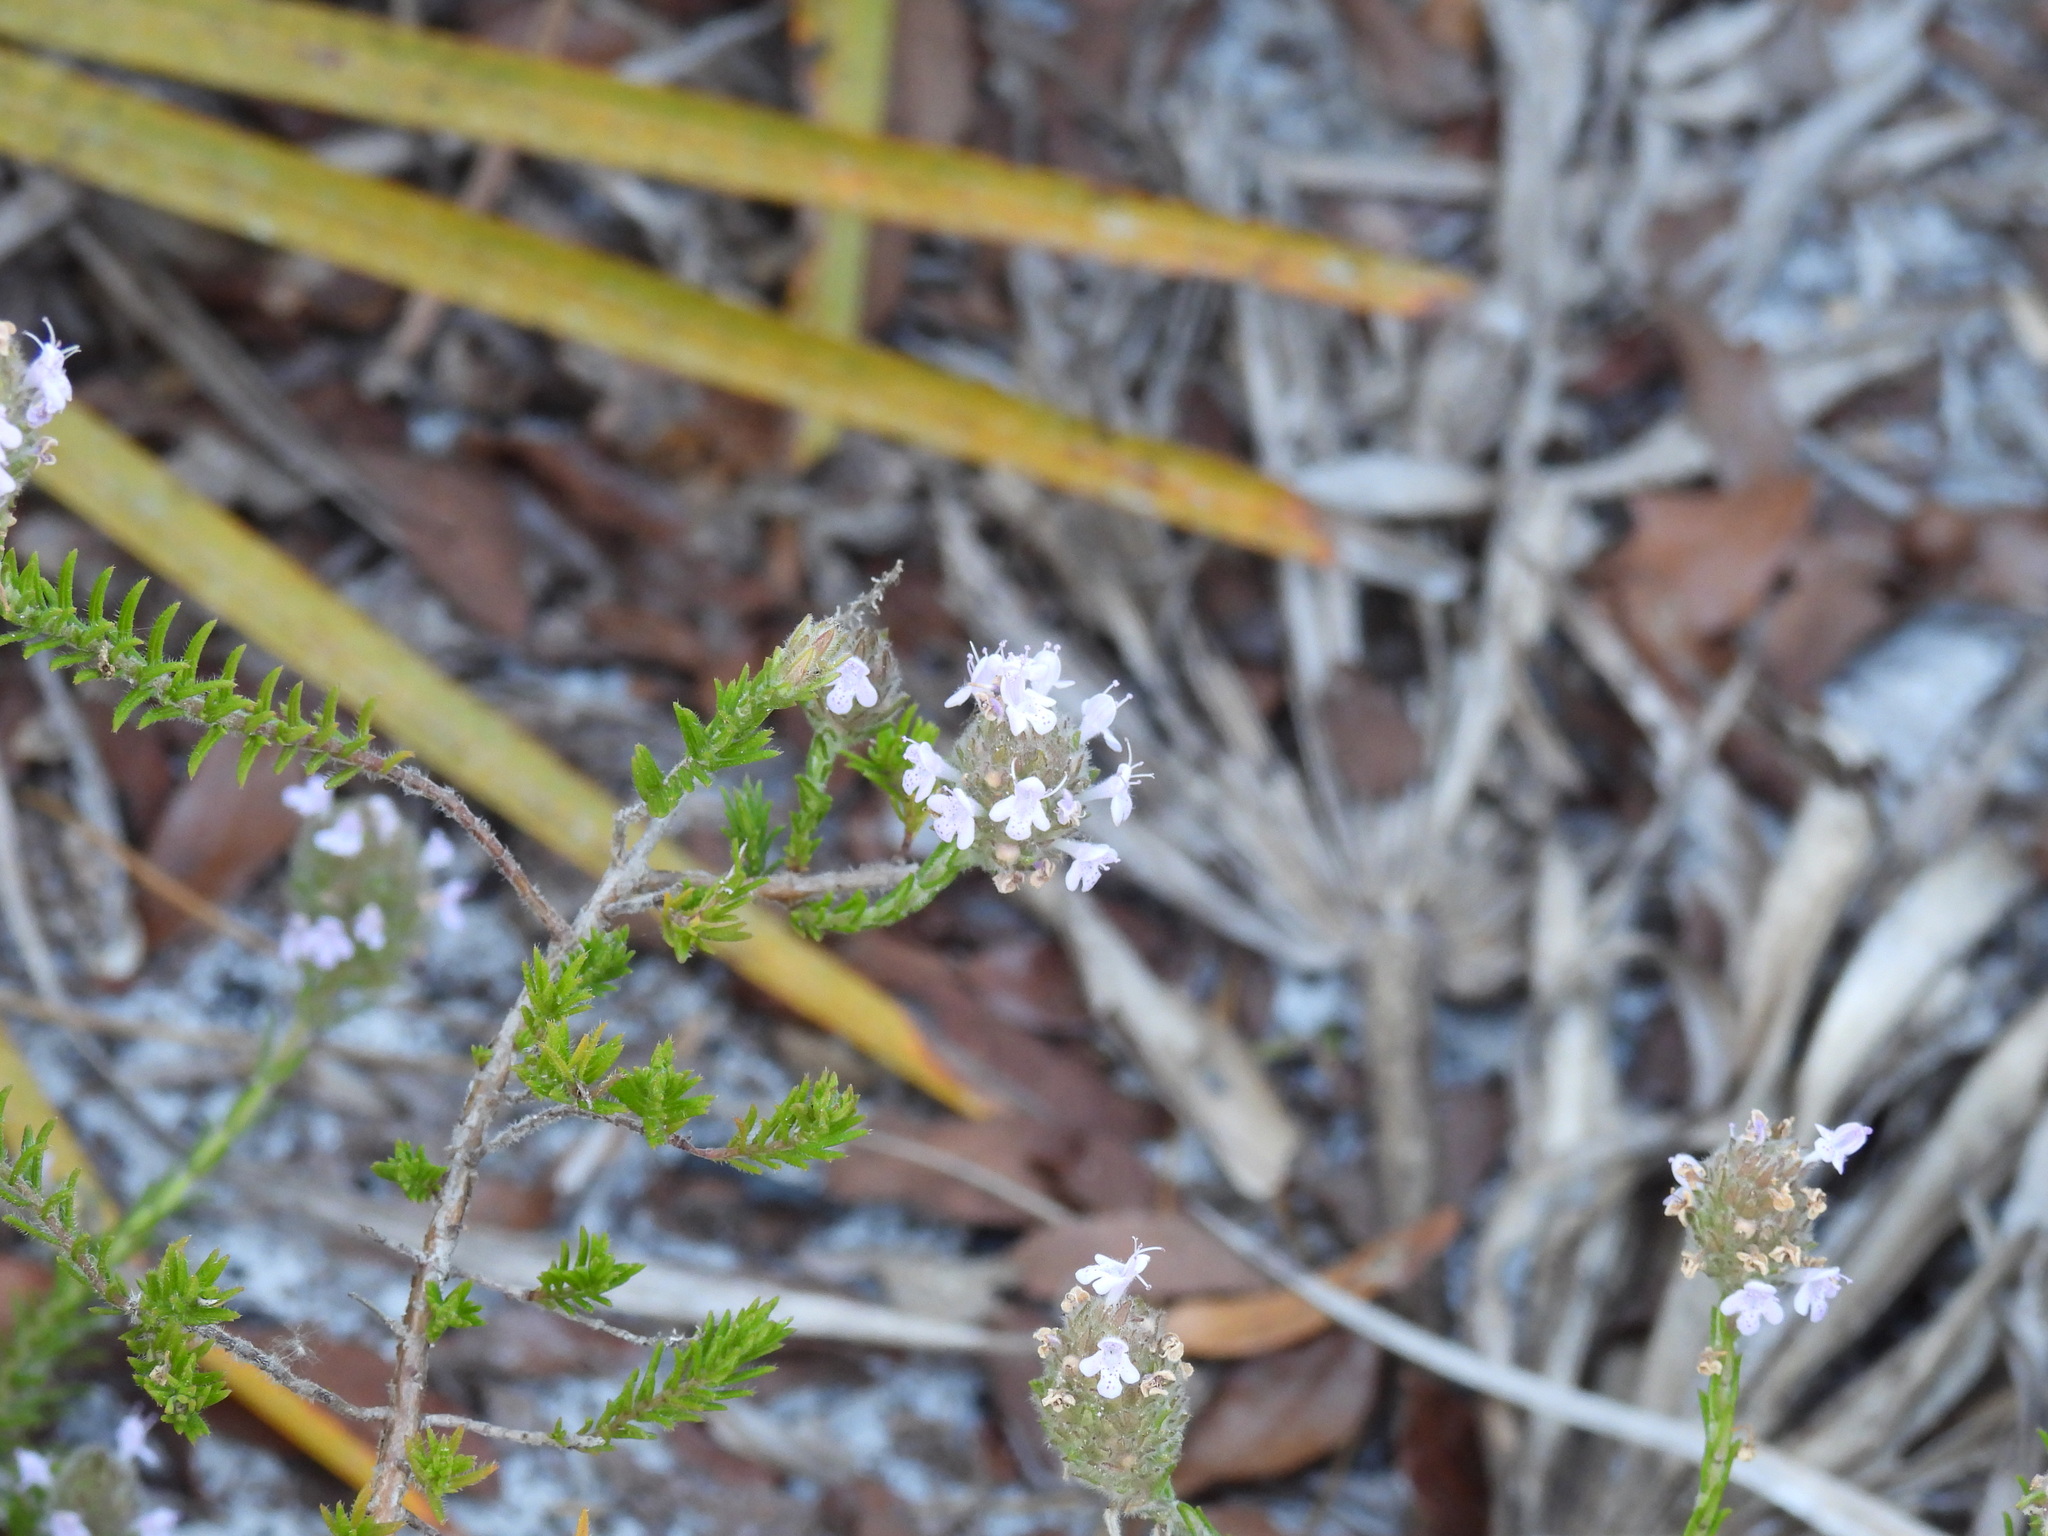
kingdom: Plantae
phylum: Tracheophyta
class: Magnoliopsida
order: Lamiales
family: Lamiaceae
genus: Piloblephis
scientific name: Piloblephis rigida
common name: Wild pennyroyal
